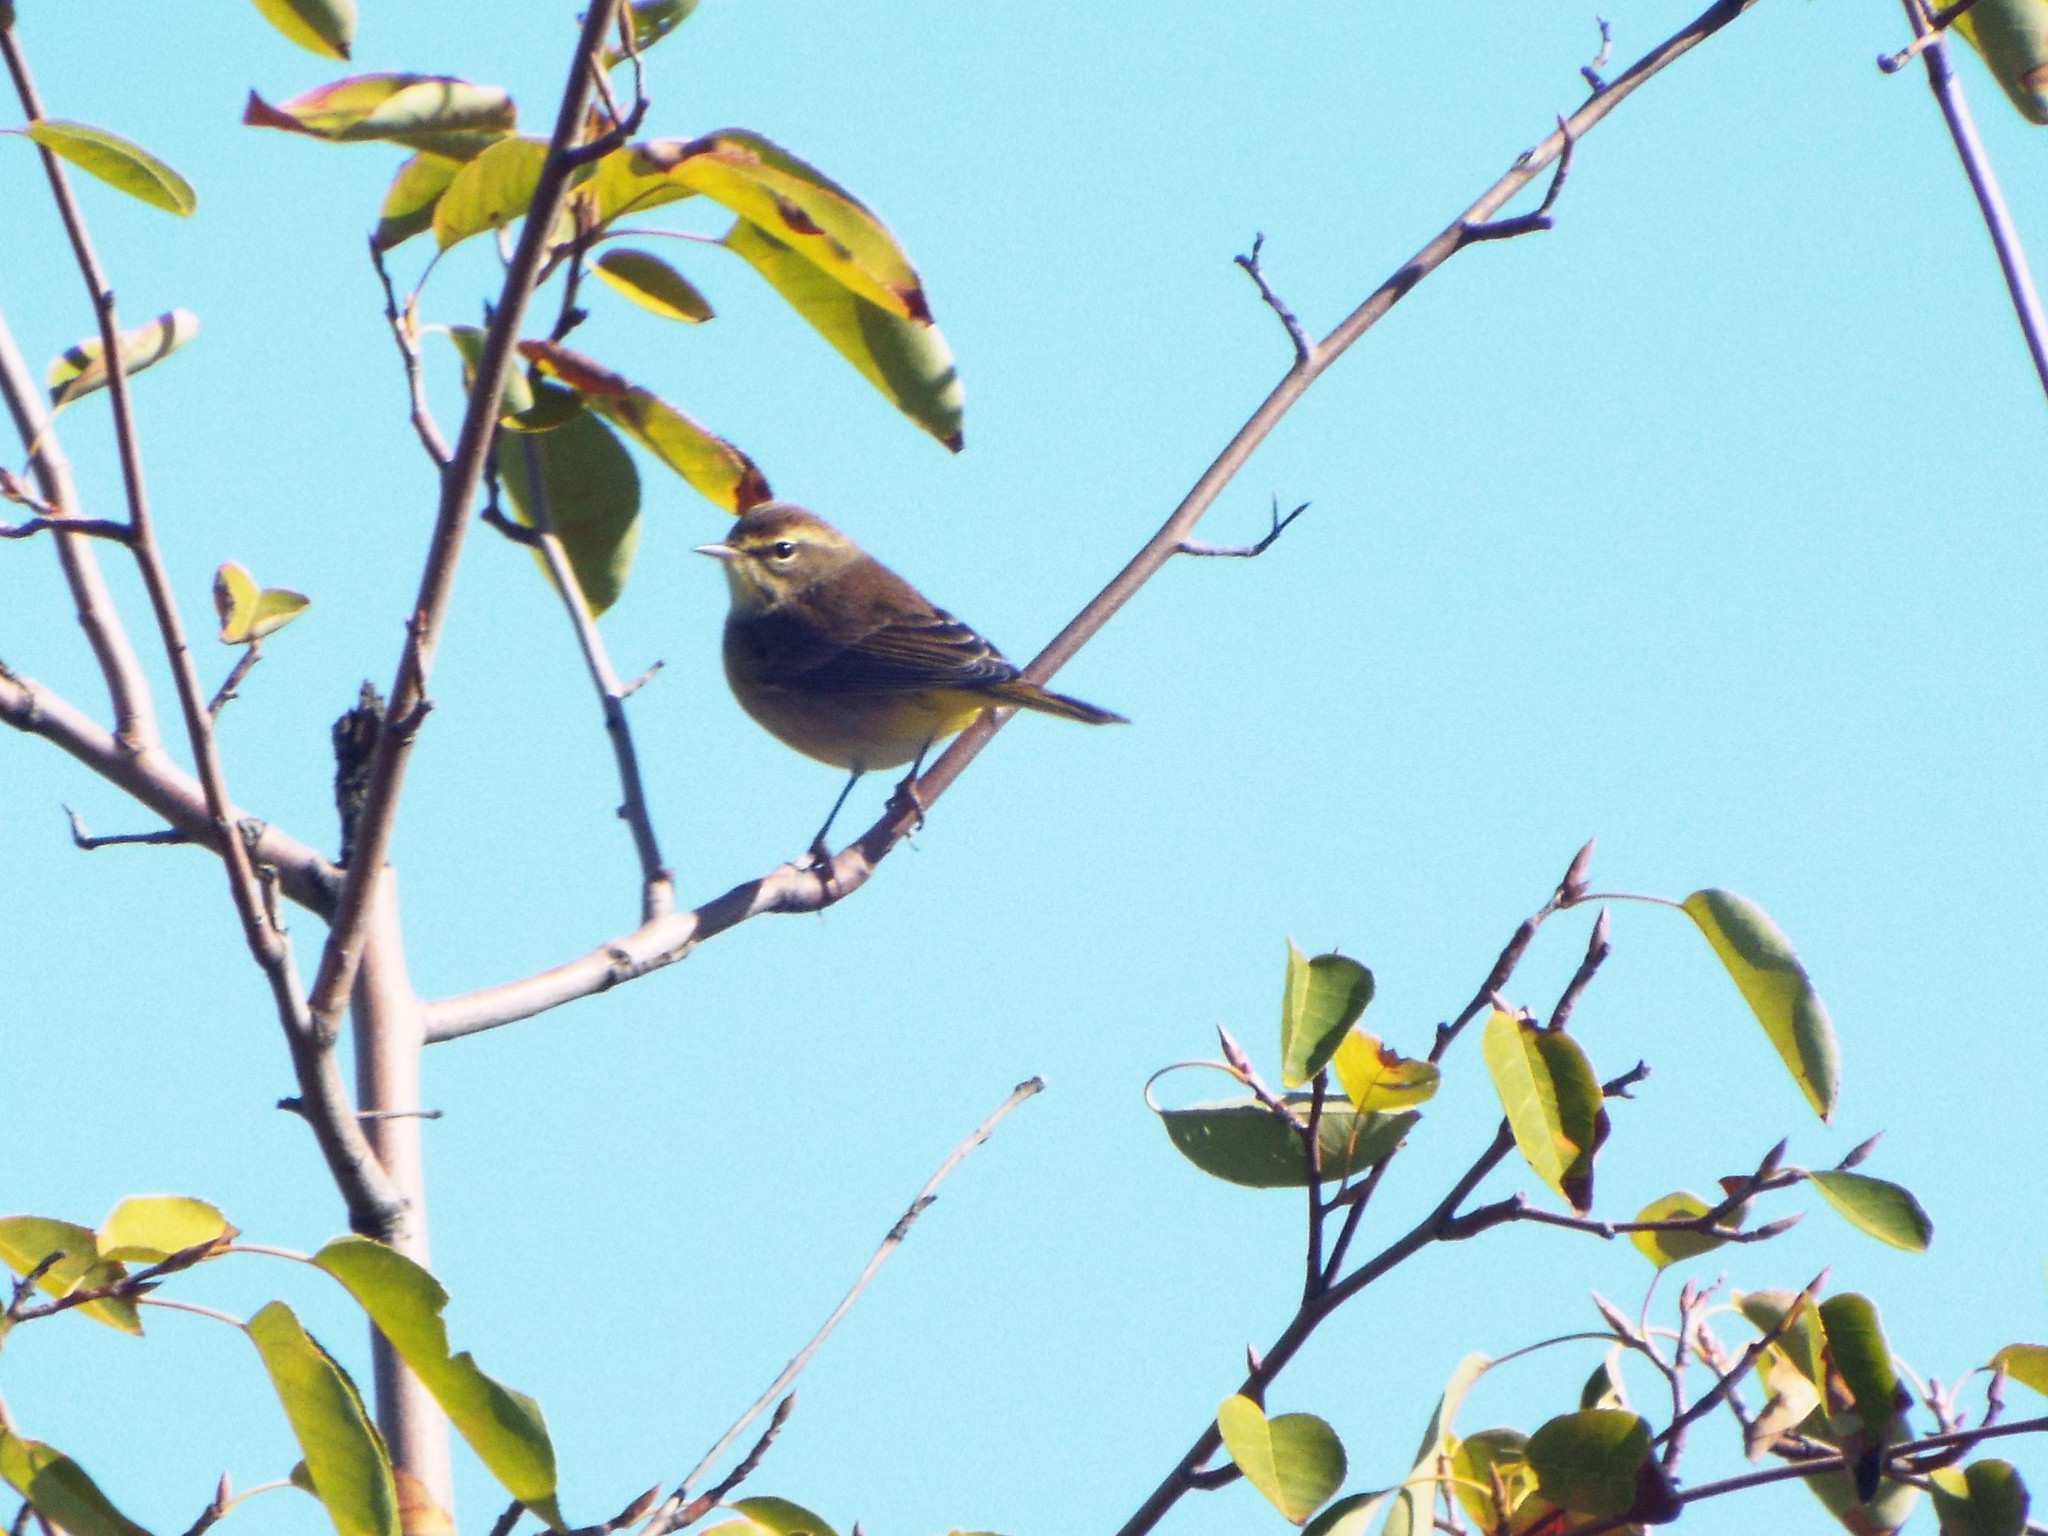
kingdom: Animalia
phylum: Chordata
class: Aves
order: Passeriformes
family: Parulidae
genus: Setophaga
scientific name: Setophaga palmarum
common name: Palm warbler
